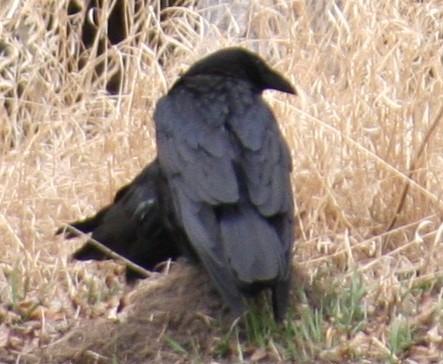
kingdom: Animalia
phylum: Chordata
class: Aves
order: Passeriformes
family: Corvidae
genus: Corvus
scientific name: Corvus corax
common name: Common raven
